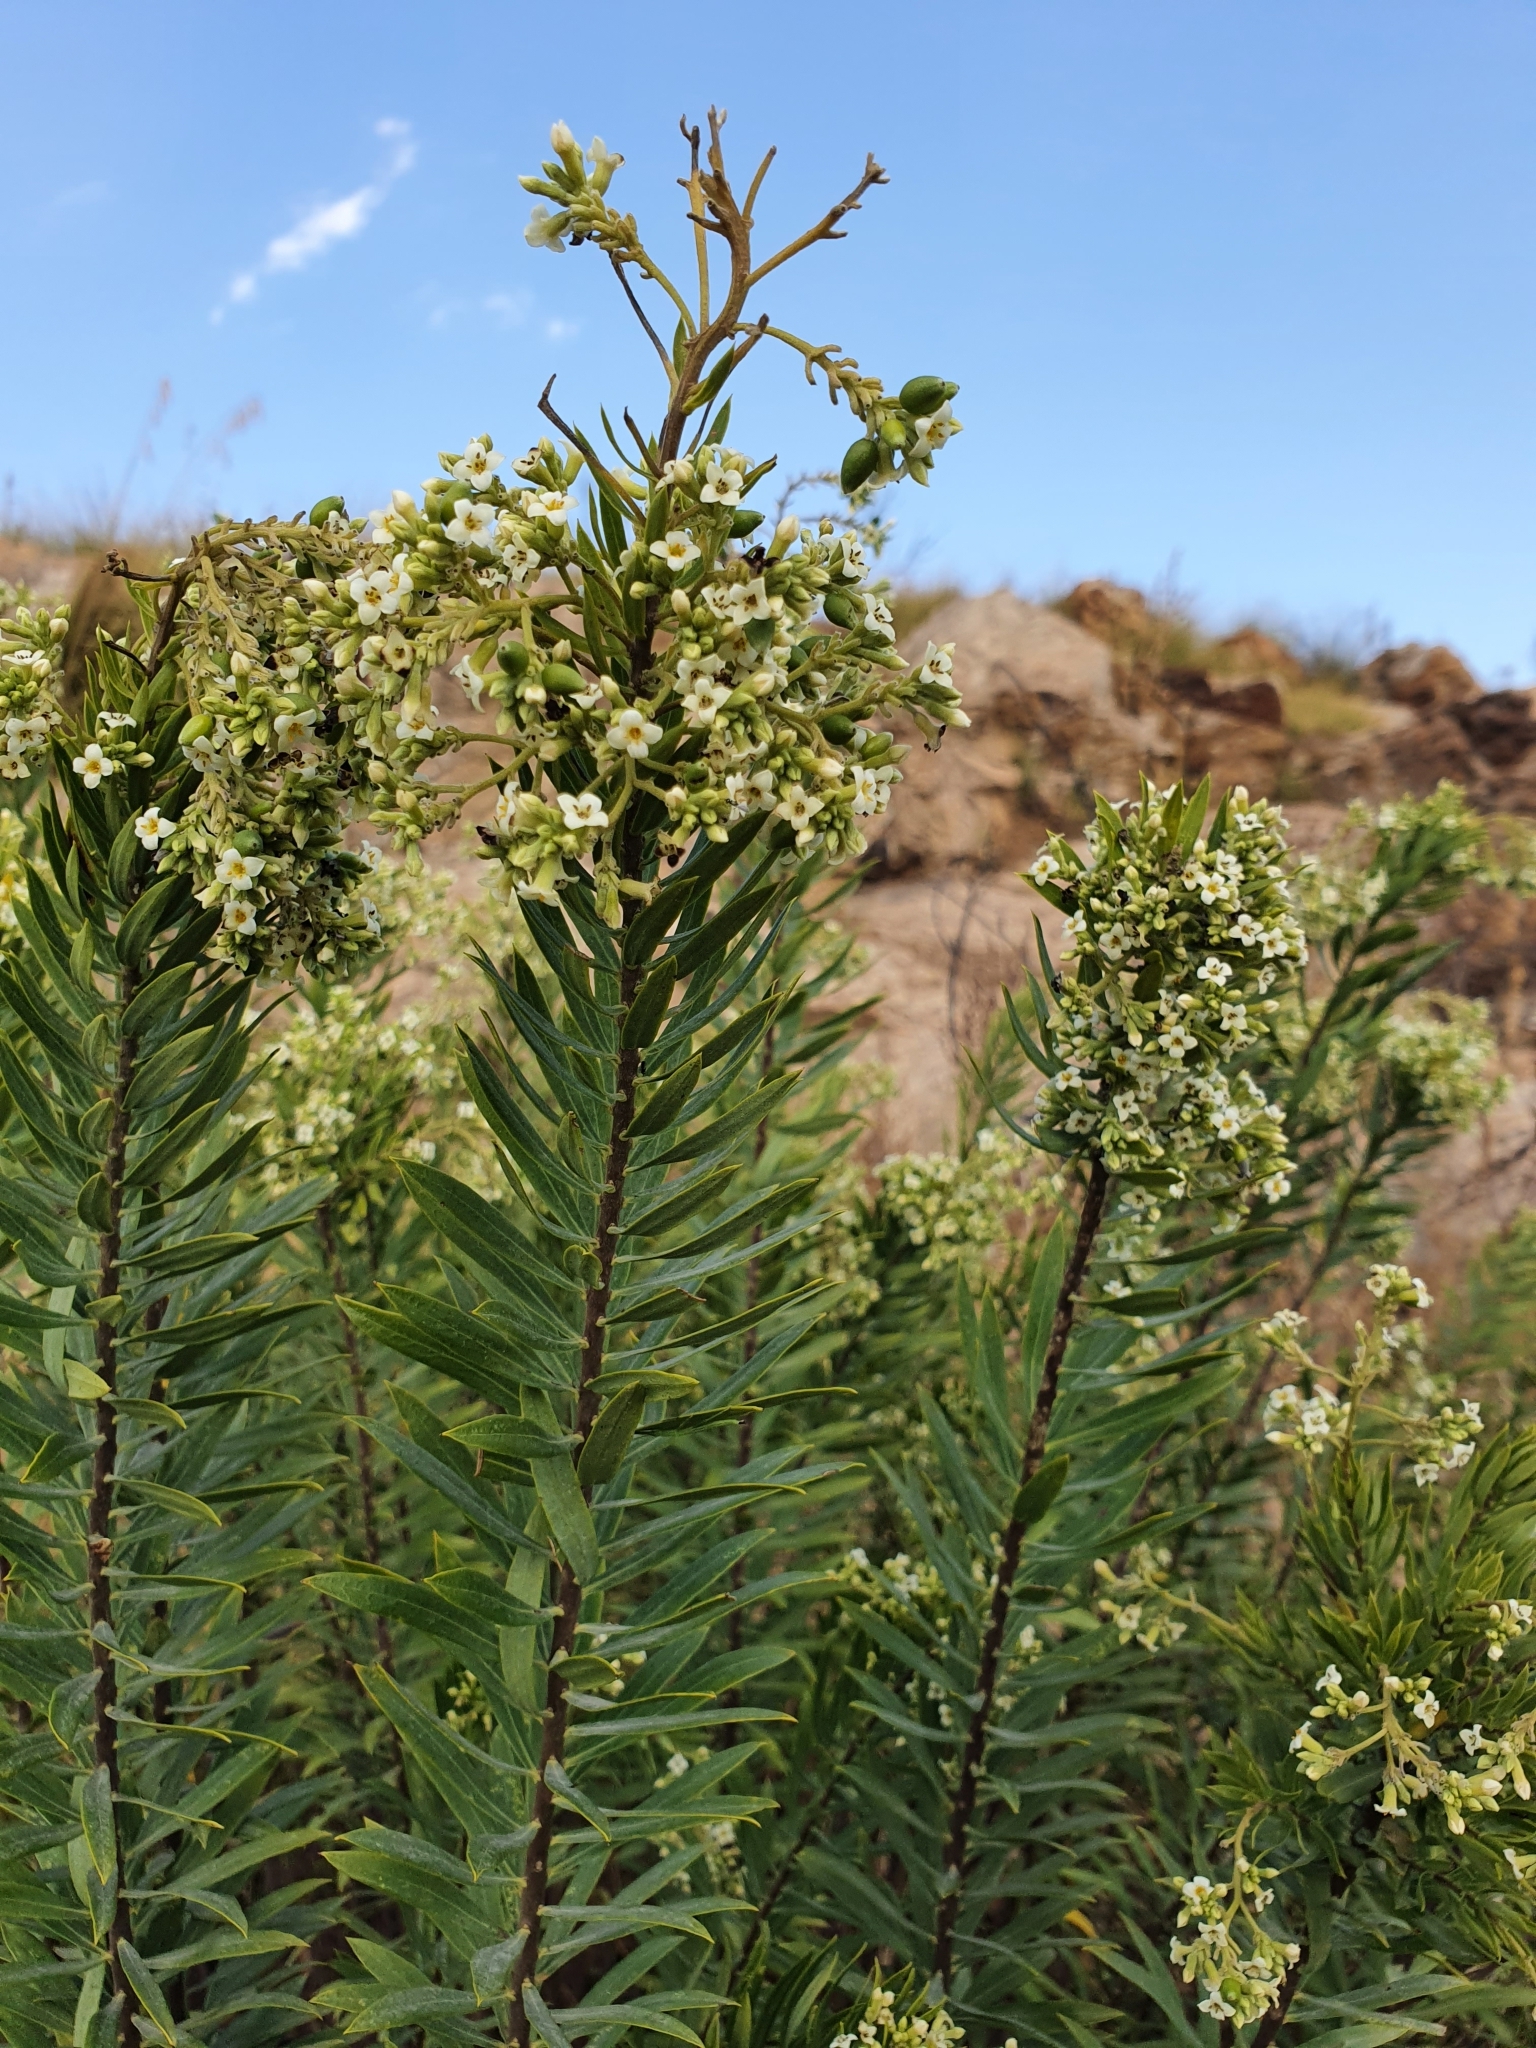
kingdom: Plantae
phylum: Tracheophyta
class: Magnoliopsida
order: Malvales
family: Thymelaeaceae
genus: Daphne
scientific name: Daphne gnidium
